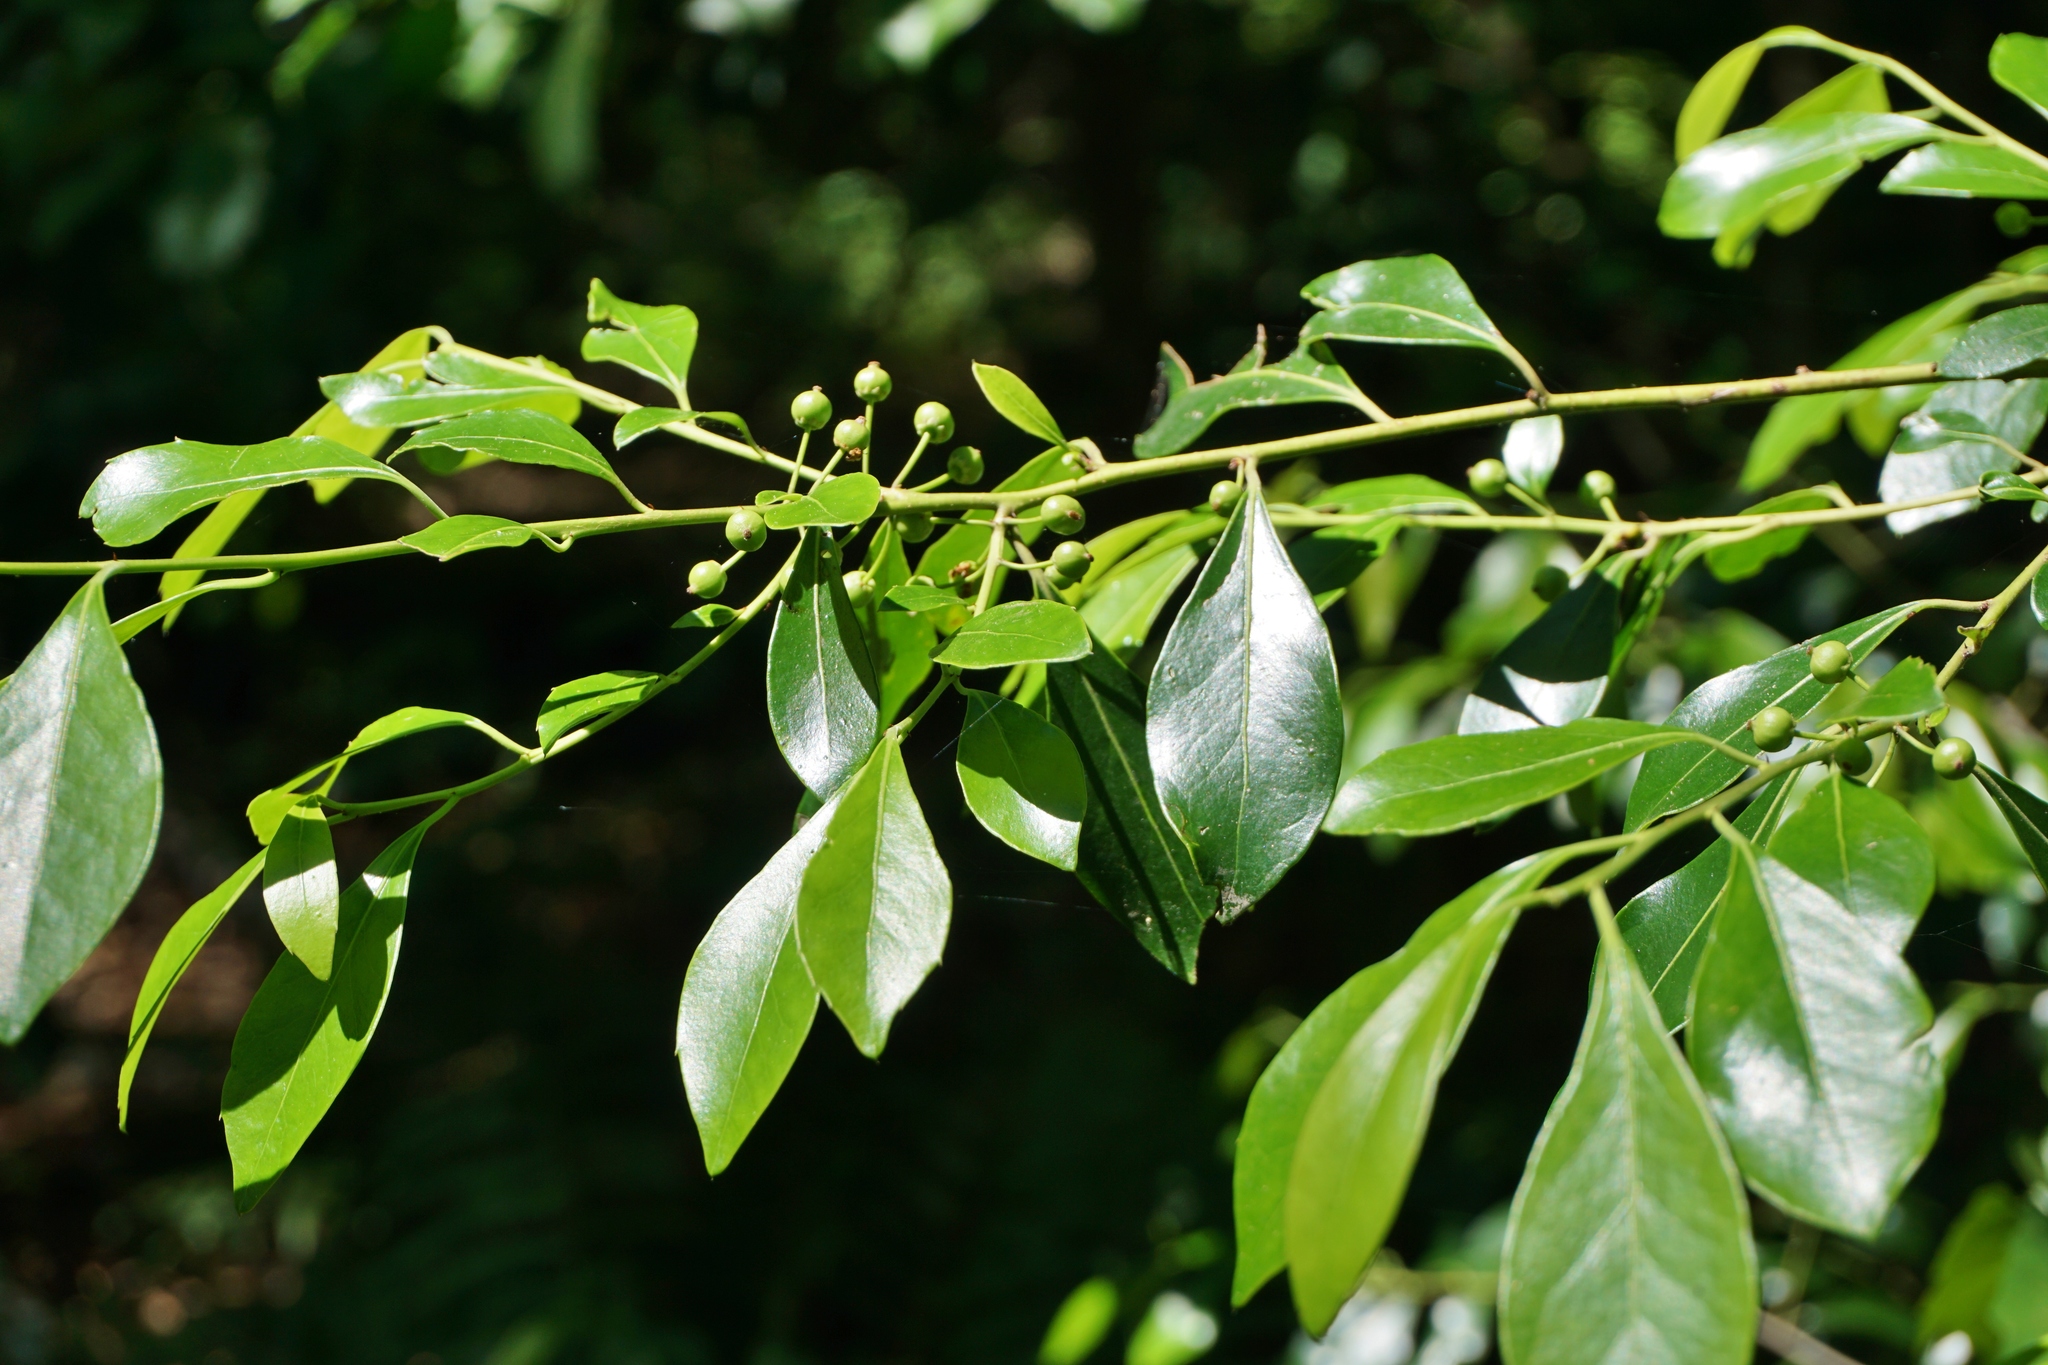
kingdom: Plantae
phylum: Tracheophyta
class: Magnoliopsida
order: Aquifoliales
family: Aquifoliaceae
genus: Ilex
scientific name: Ilex glabra
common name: Bitter gallberry
